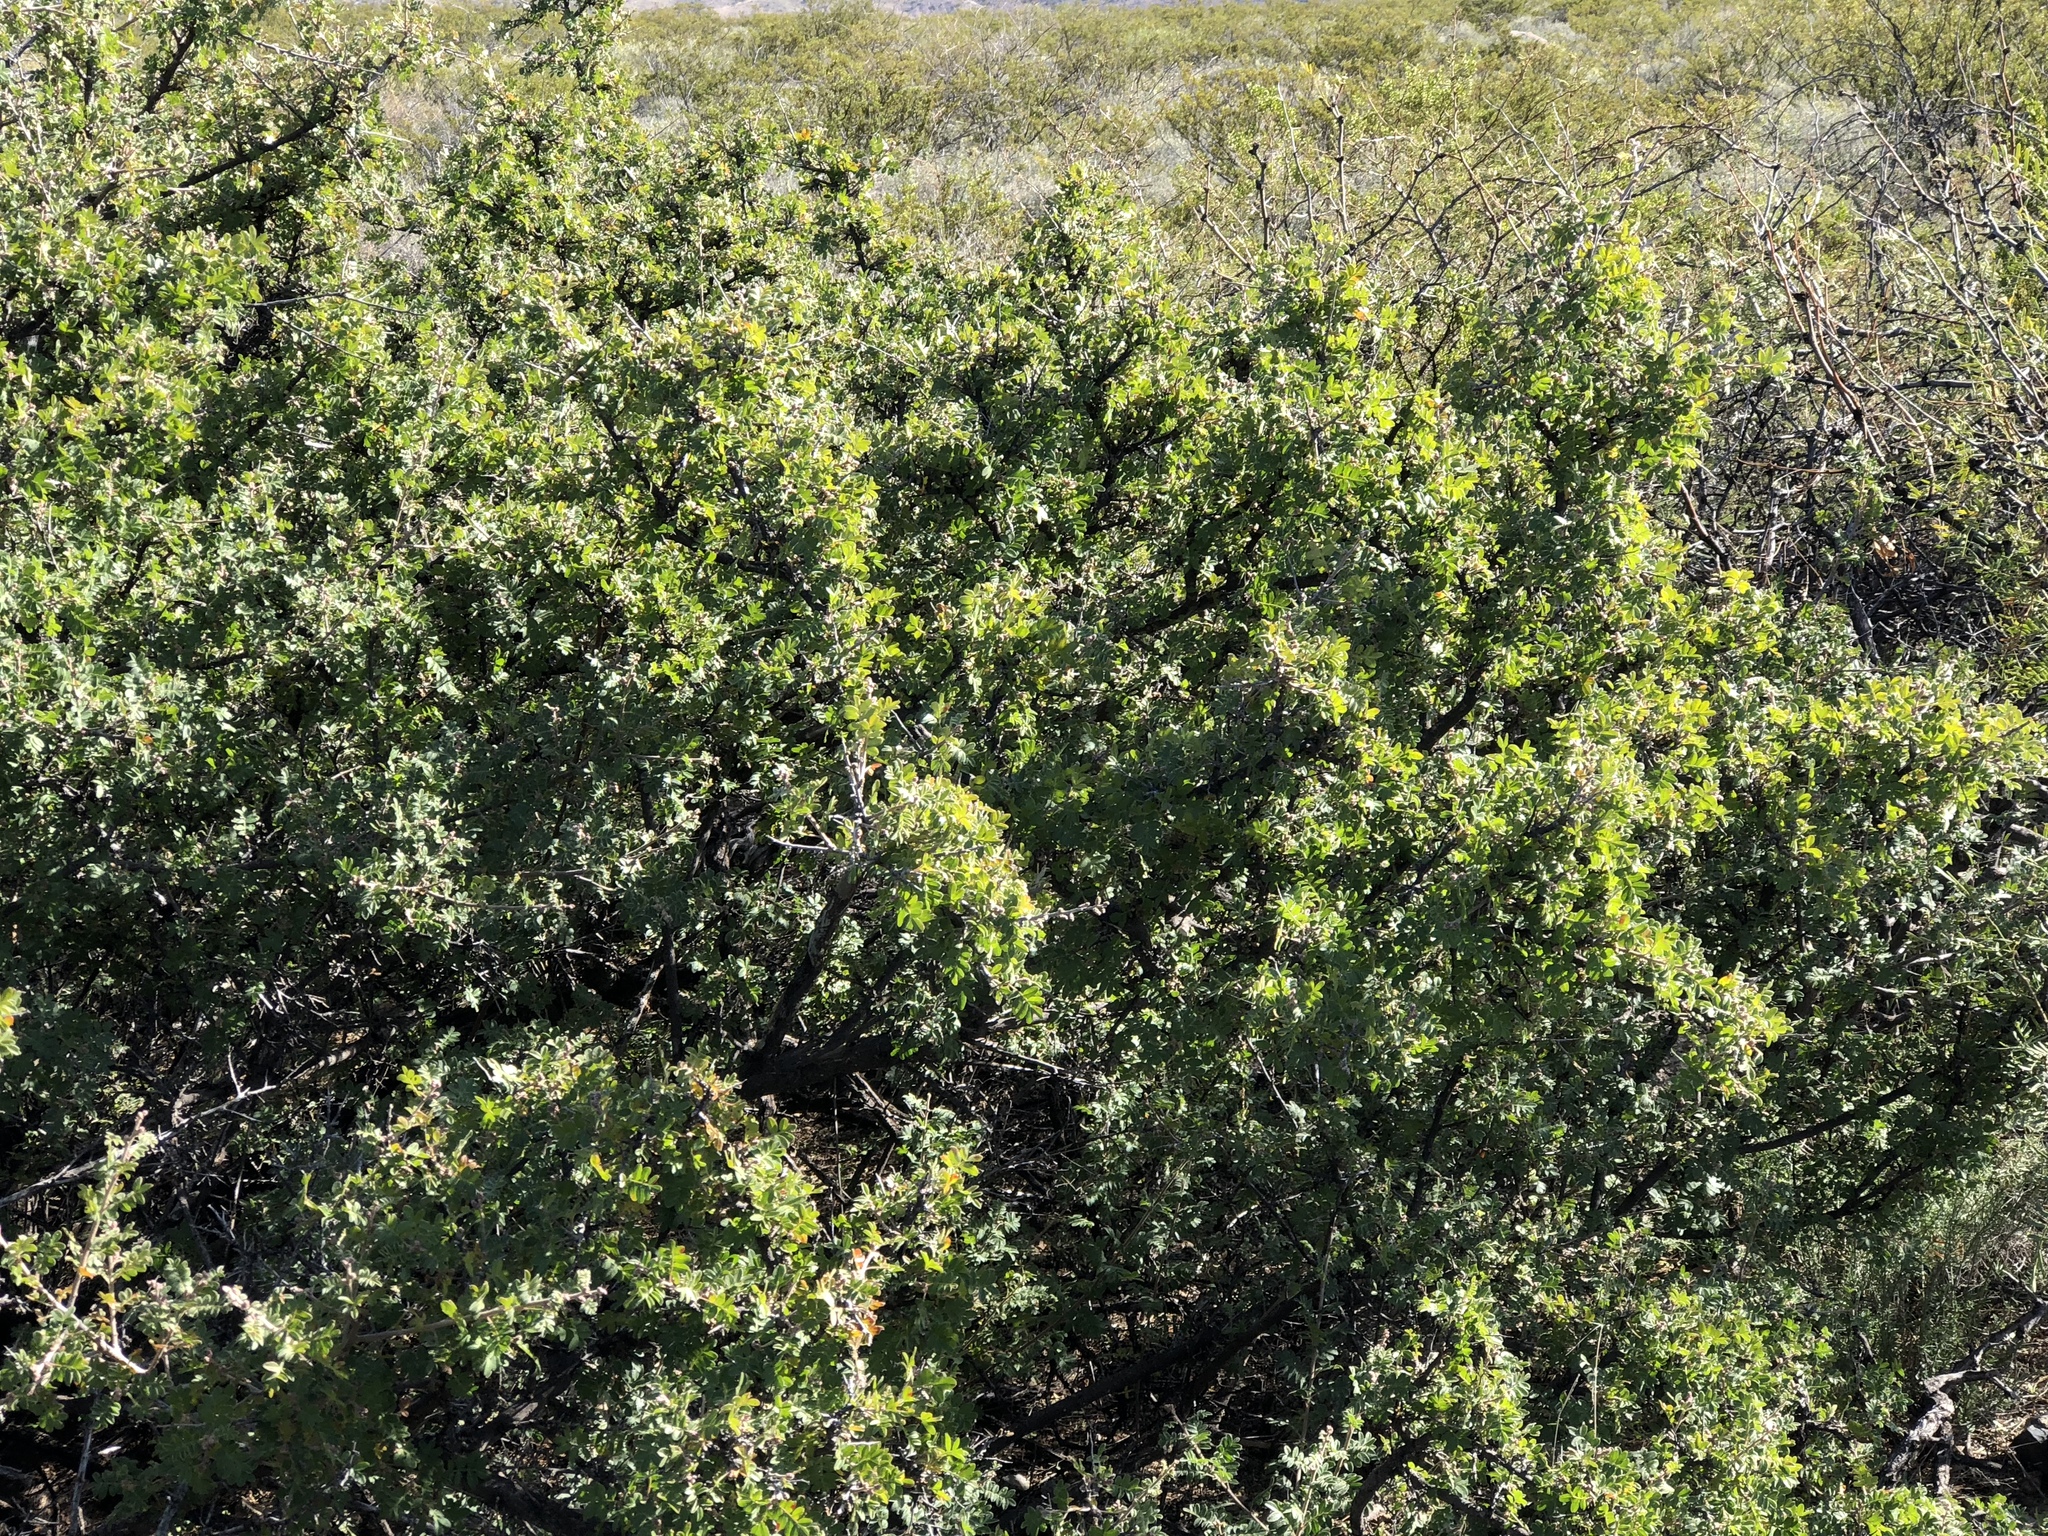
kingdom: Plantae
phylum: Tracheophyta
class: Magnoliopsida
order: Sapindales
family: Anacardiaceae
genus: Rhus
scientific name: Rhus microphylla
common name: Desert sumac
